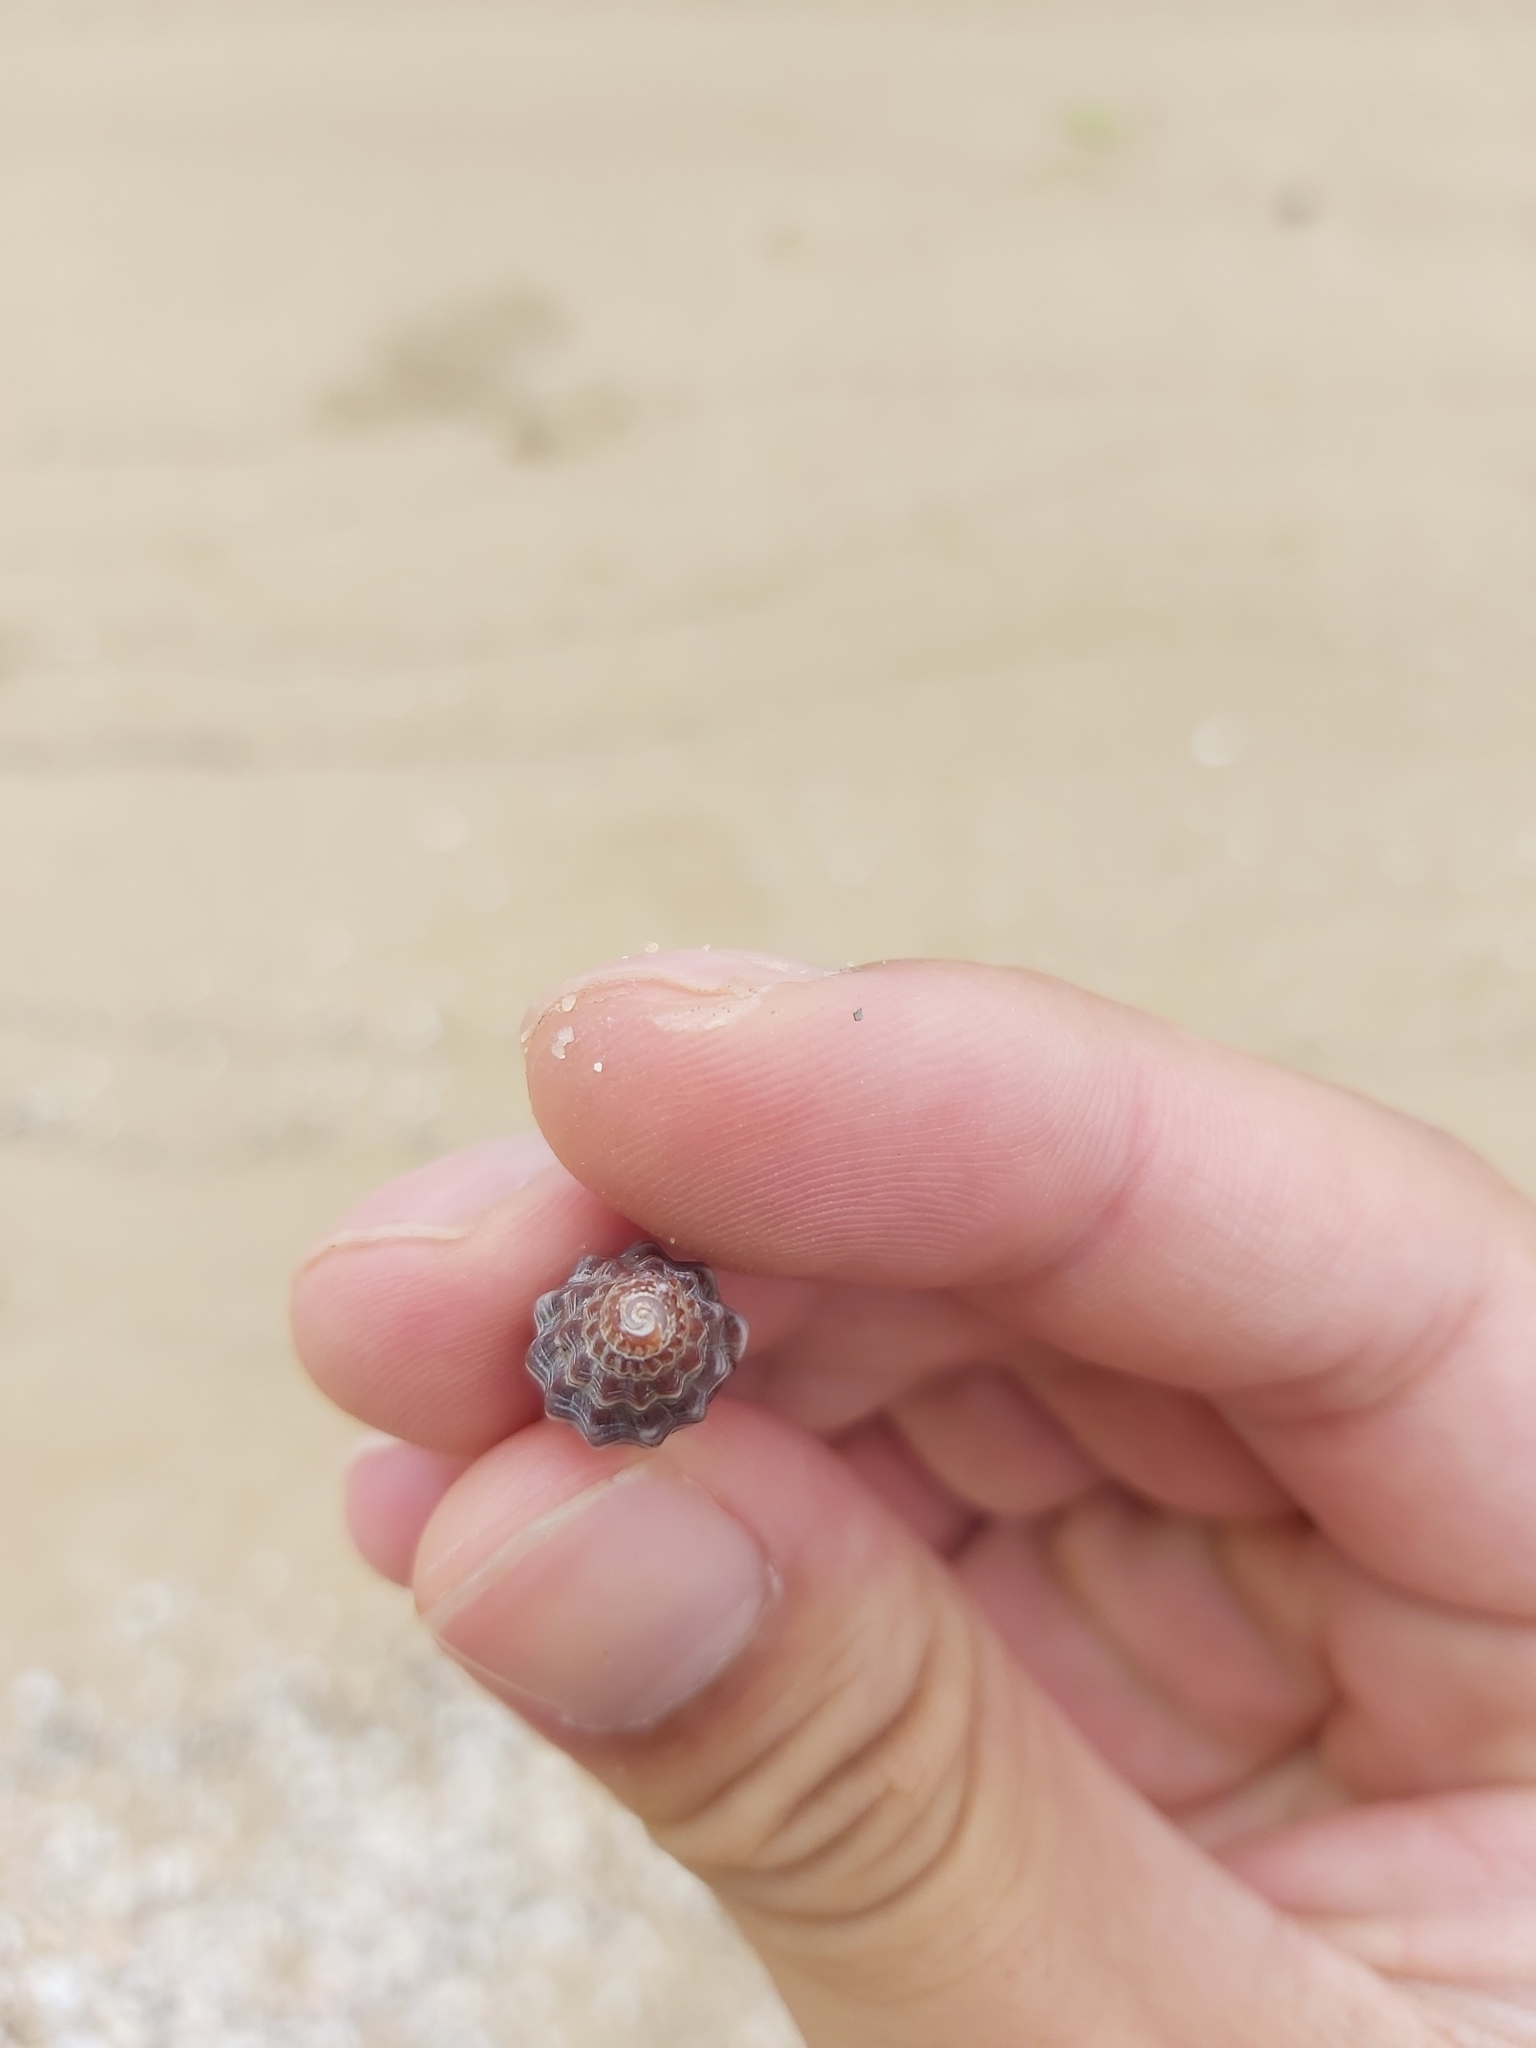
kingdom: Animalia
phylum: Mollusca
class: Gastropoda
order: Neogastropoda
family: Costellariidae
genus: Vexillum
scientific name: Vexillum rugosum
